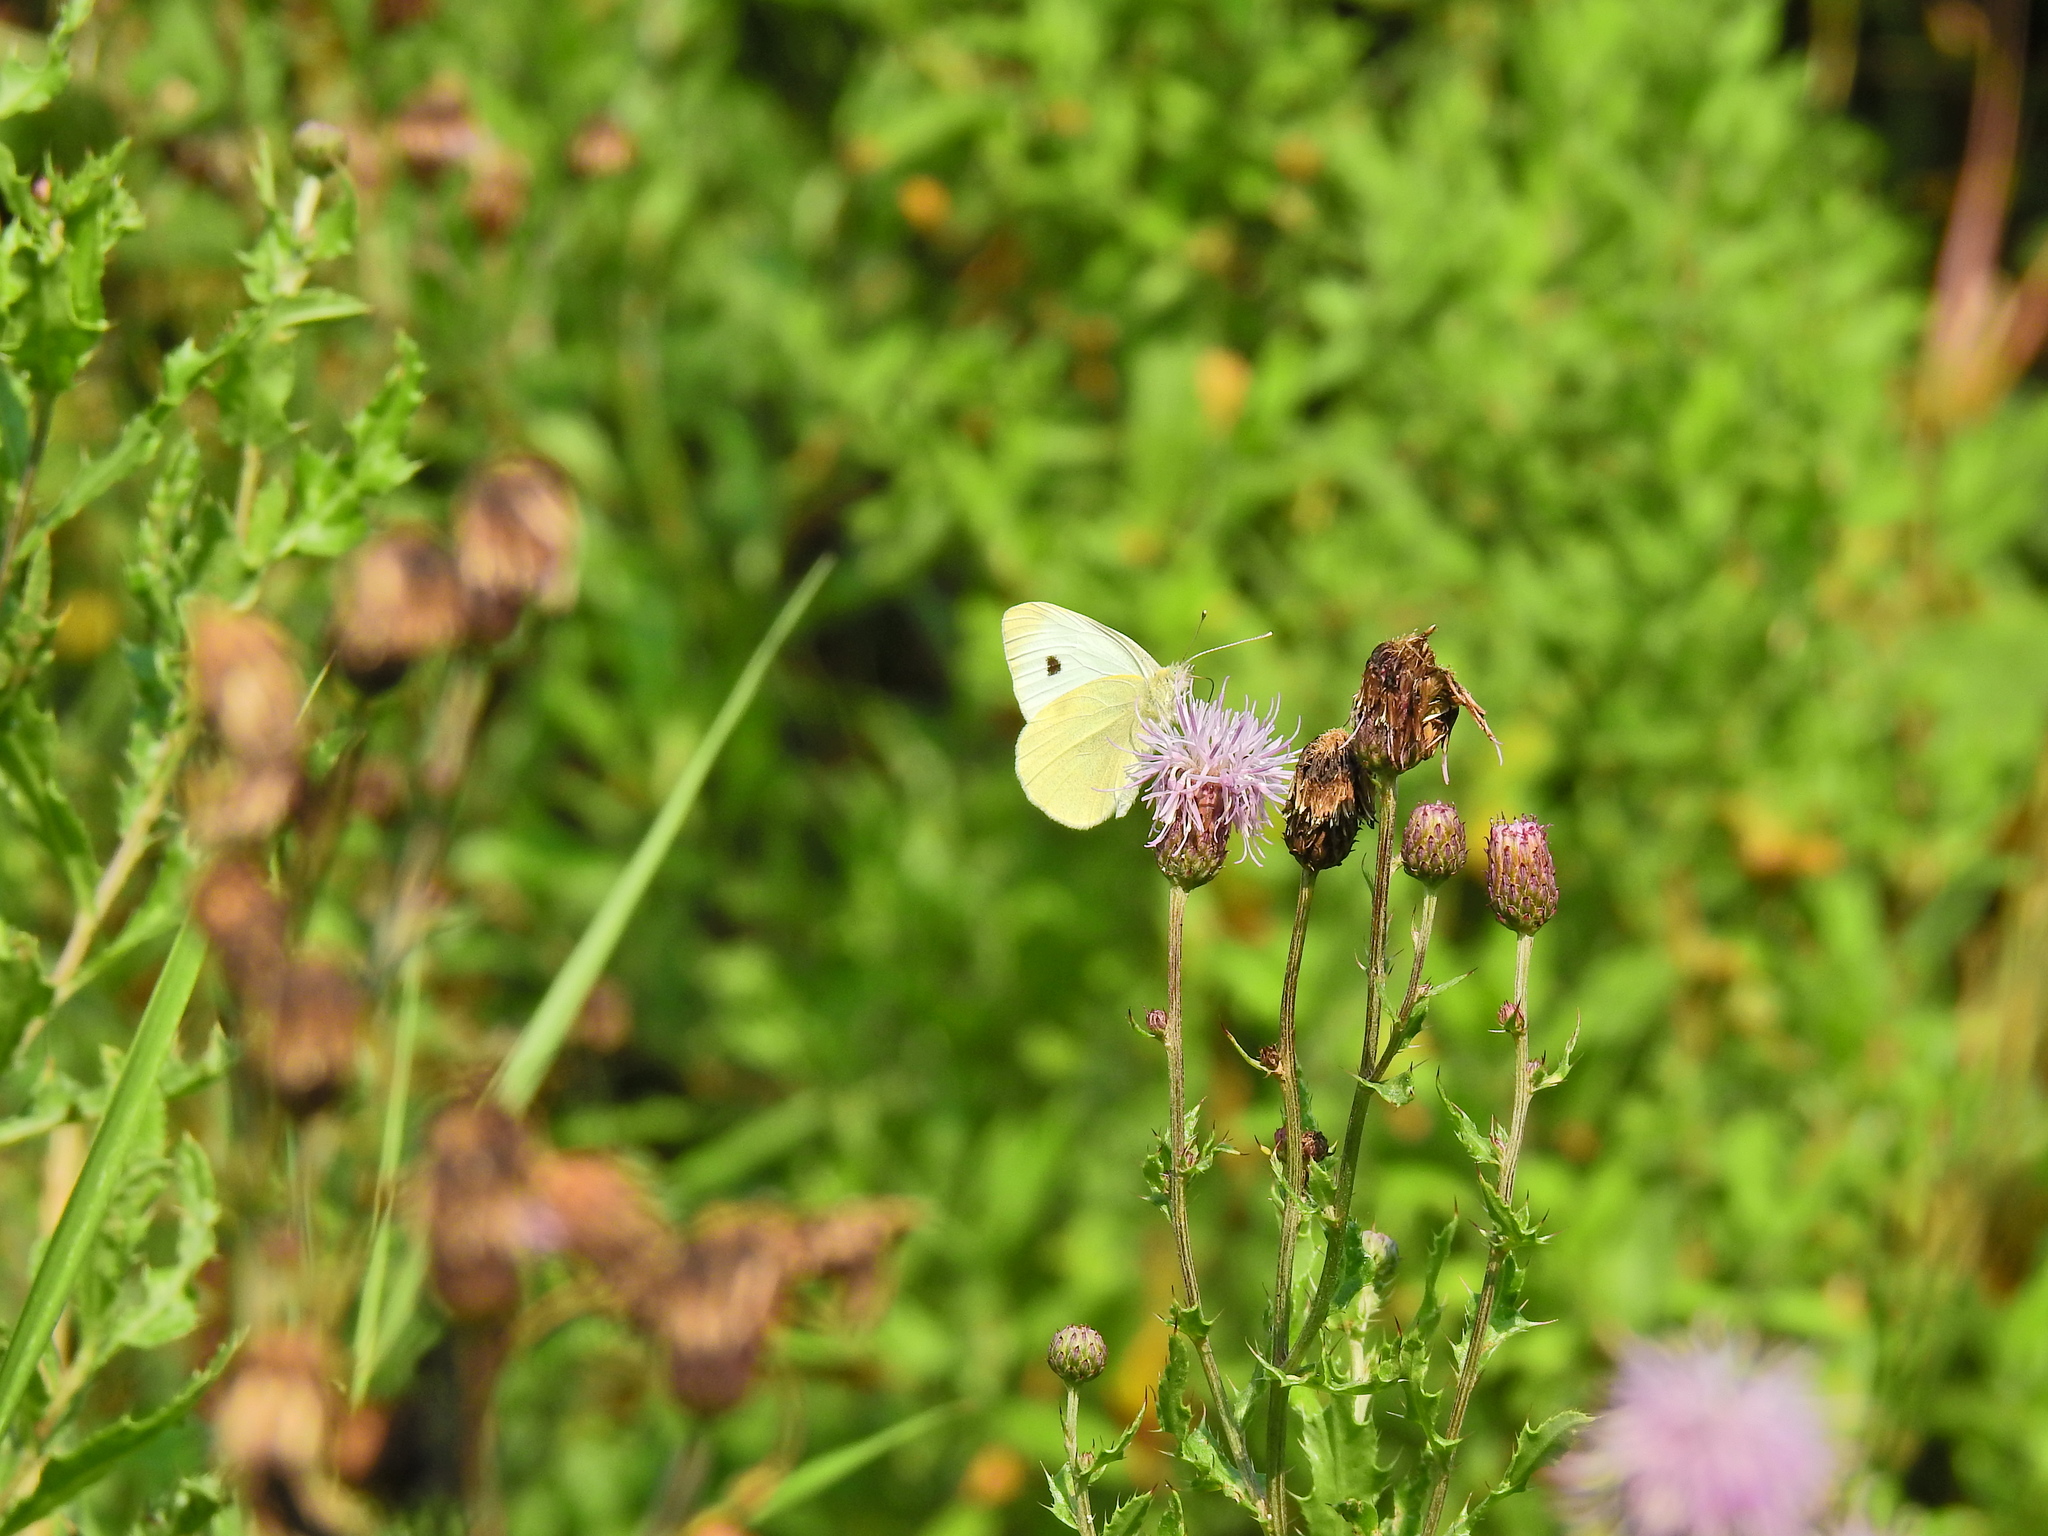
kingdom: Animalia
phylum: Arthropoda
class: Insecta
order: Lepidoptera
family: Pieridae
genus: Pieris
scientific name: Pieris rapae
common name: Small white
